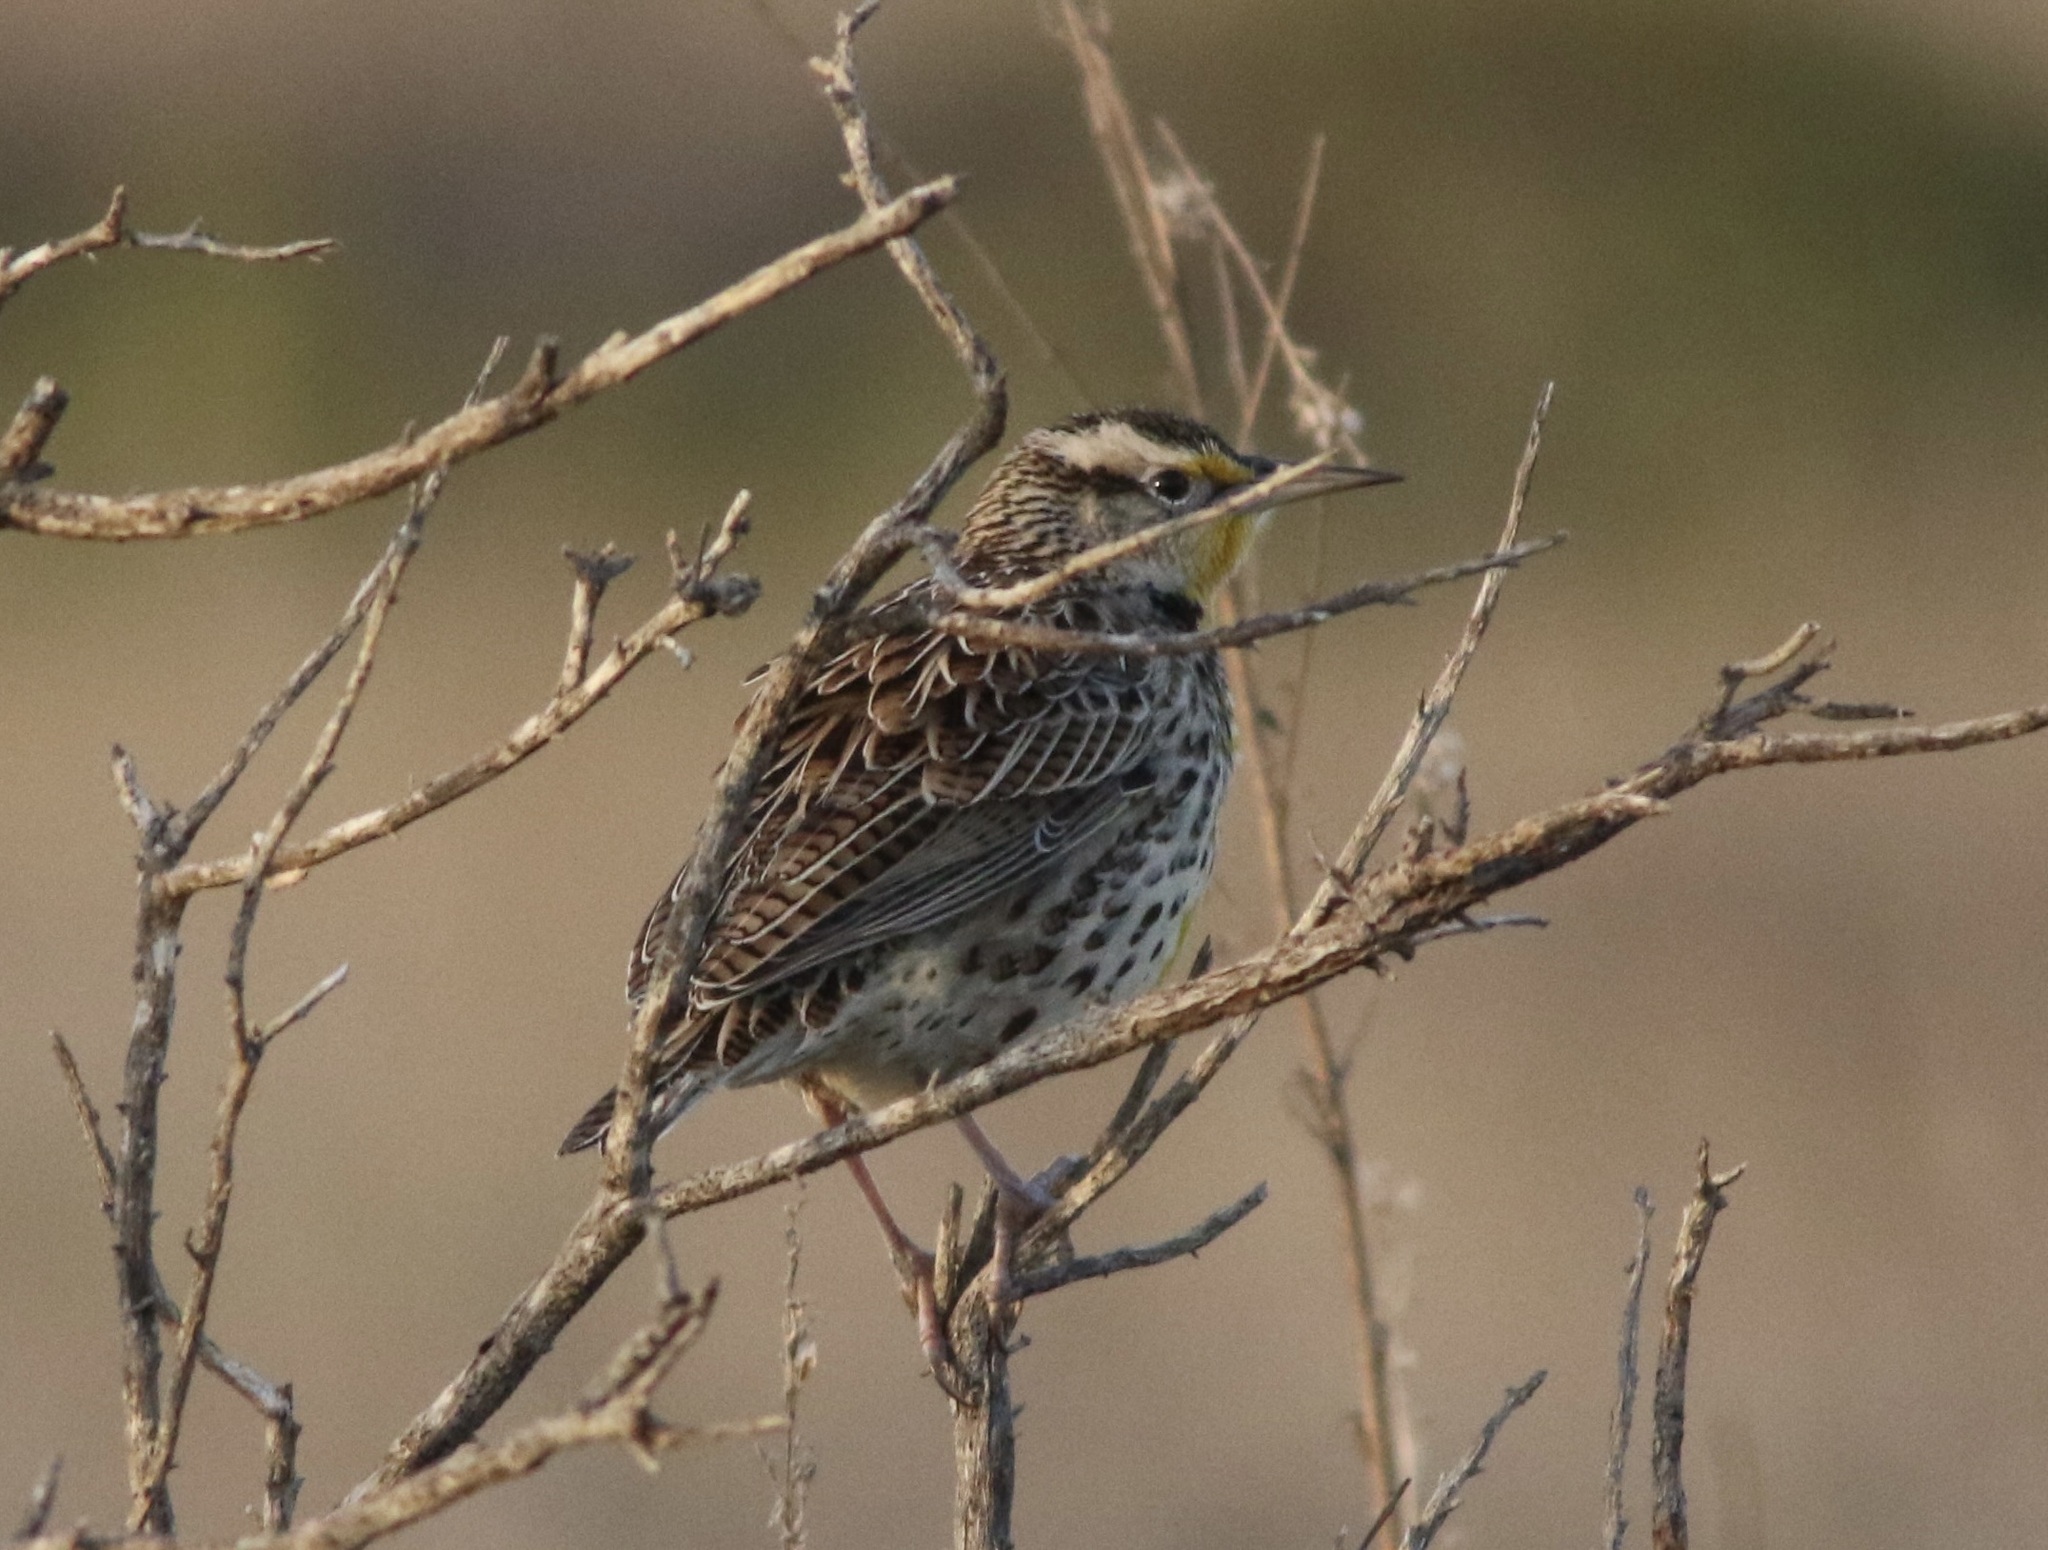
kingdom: Animalia
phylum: Chordata
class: Aves
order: Passeriformes
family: Icteridae
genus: Sturnella
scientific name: Sturnella neglecta
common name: Western meadowlark
